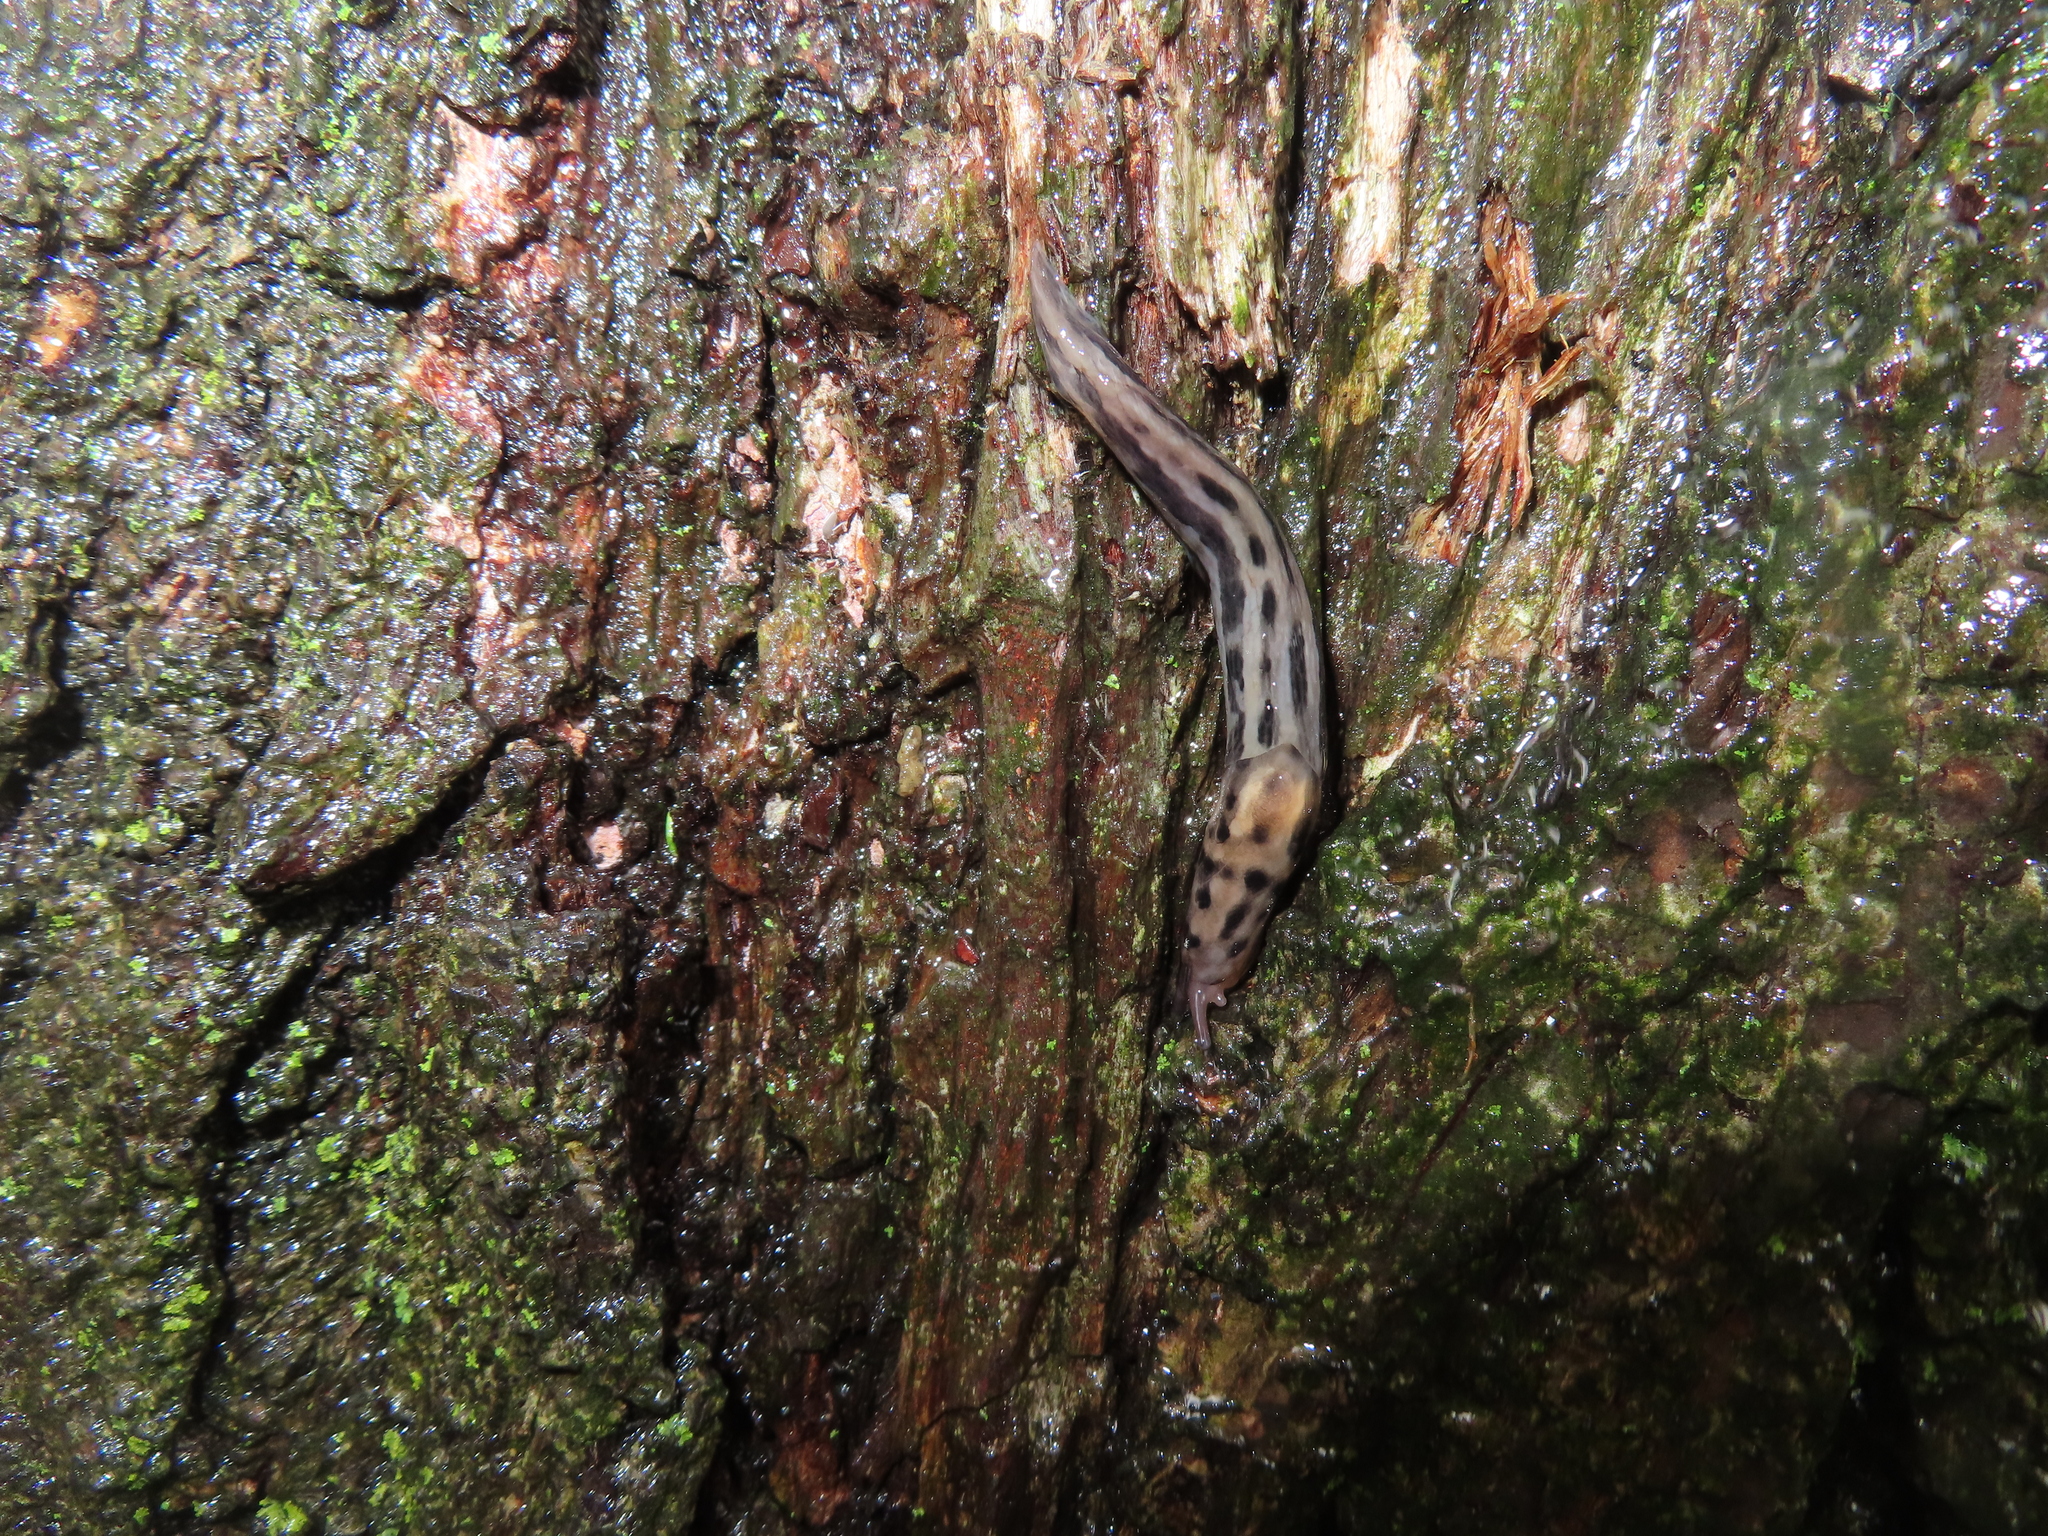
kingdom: Animalia
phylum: Mollusca
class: Gastropoda
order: Stylommatophora
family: Limacidae
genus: Limax
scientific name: Limax maximus
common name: Great grey slug
